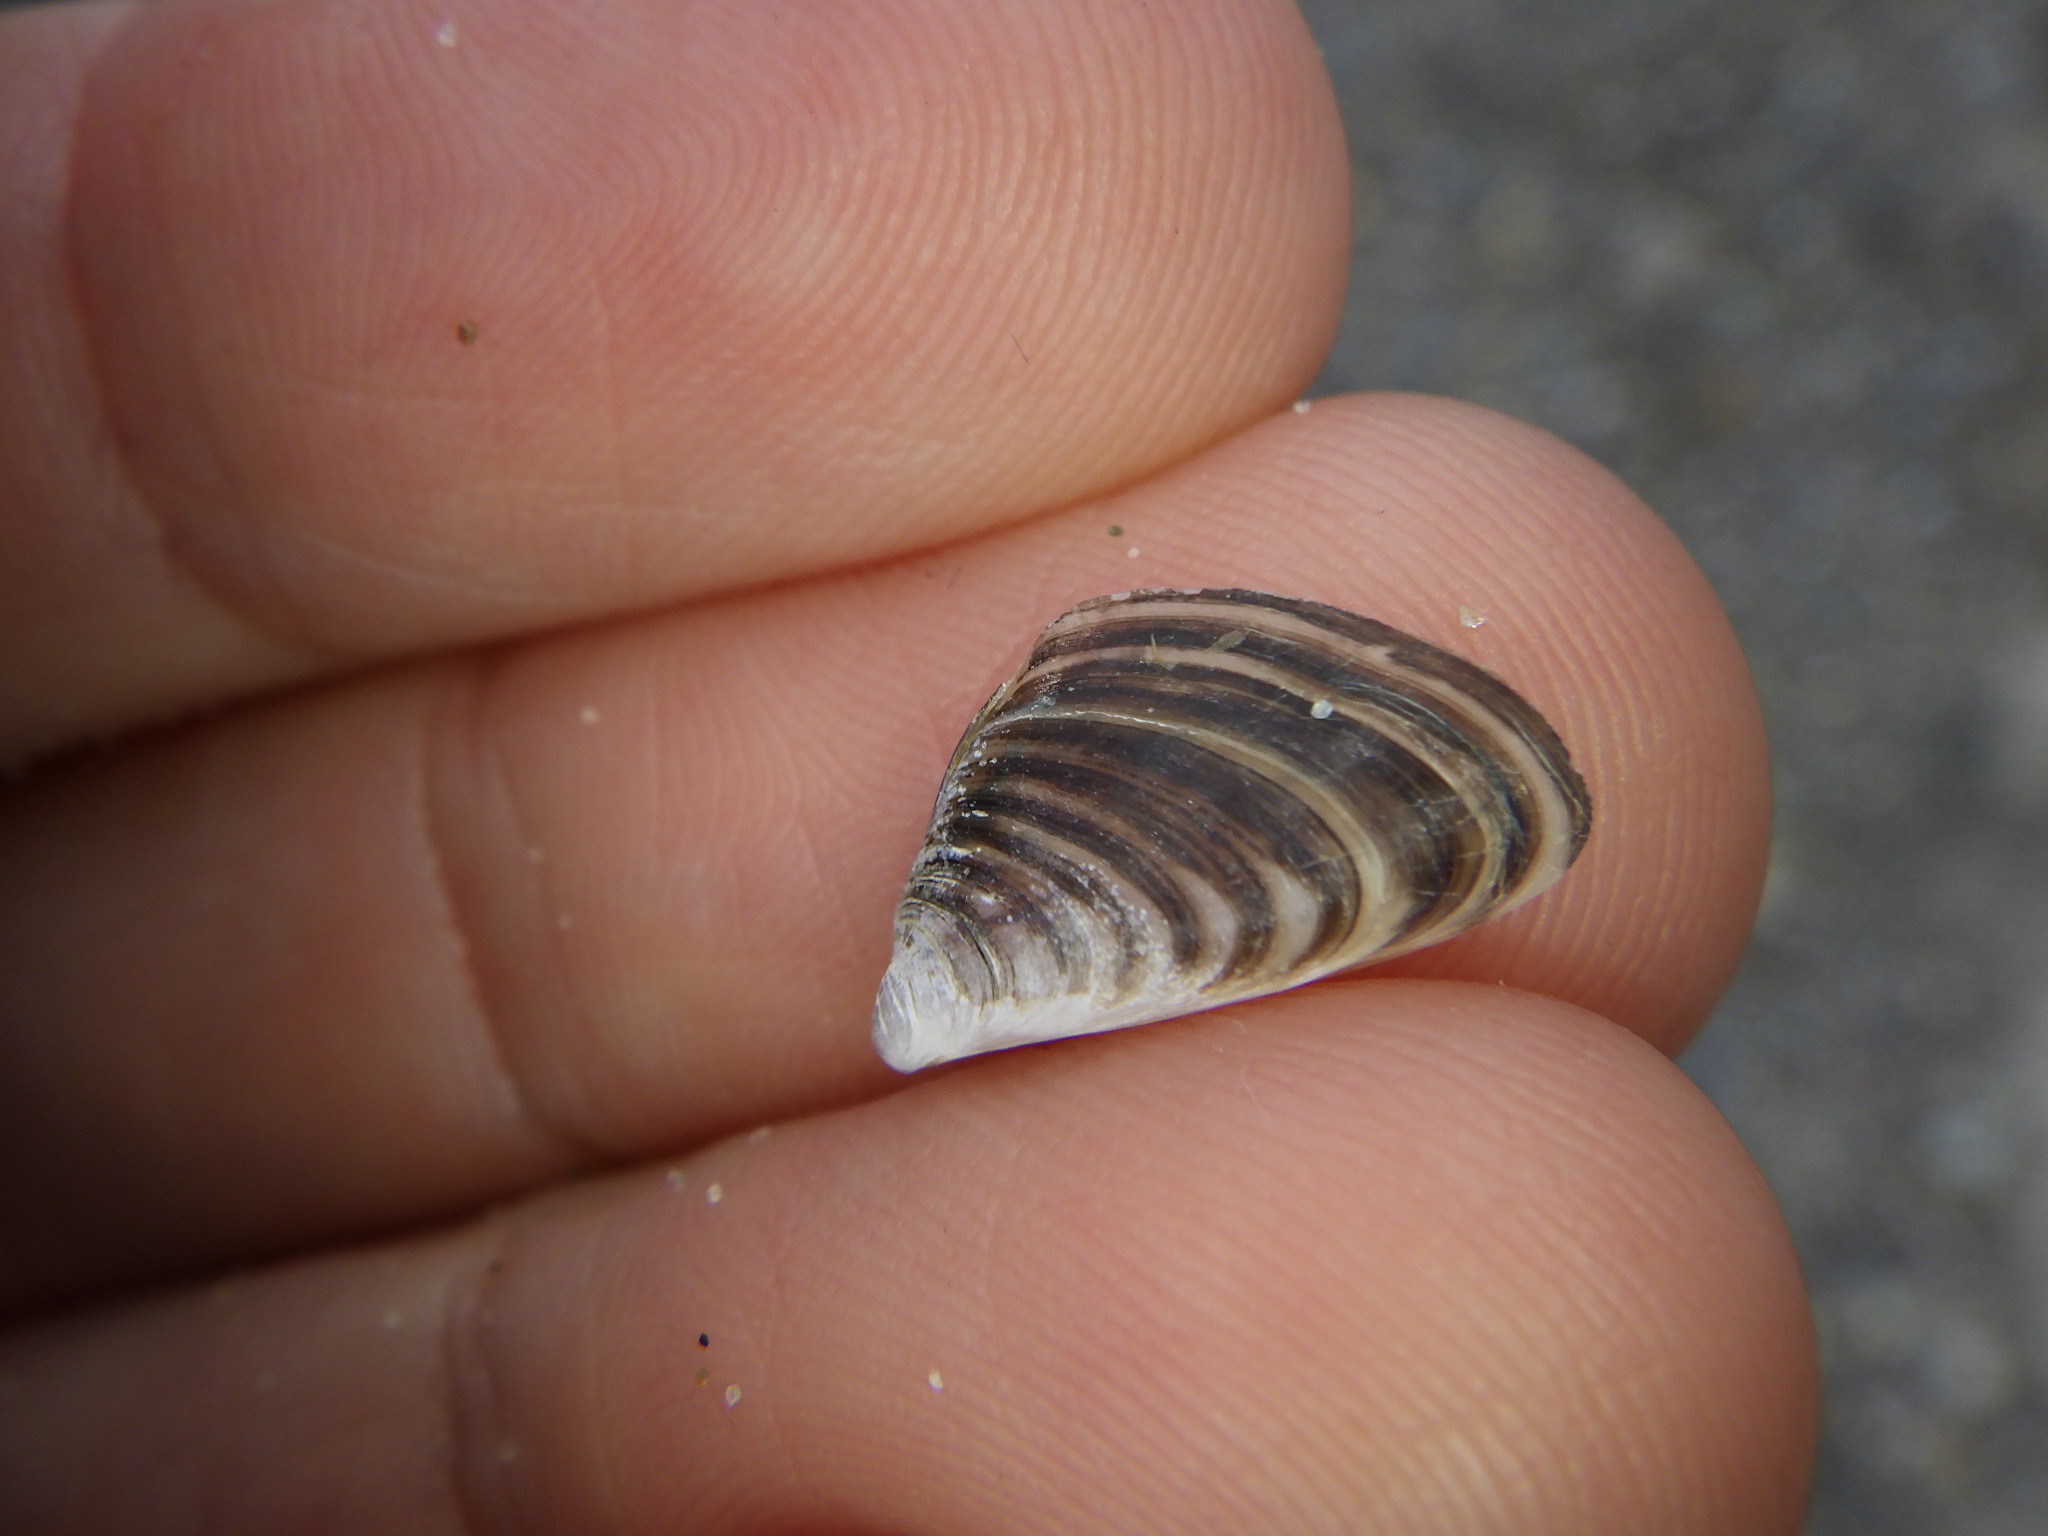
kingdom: Animalia
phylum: Mollusca
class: Bivalvia
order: Myida
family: Dreissenidae
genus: Dreissena
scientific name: Dreissena bugensis
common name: Quagga mussel
